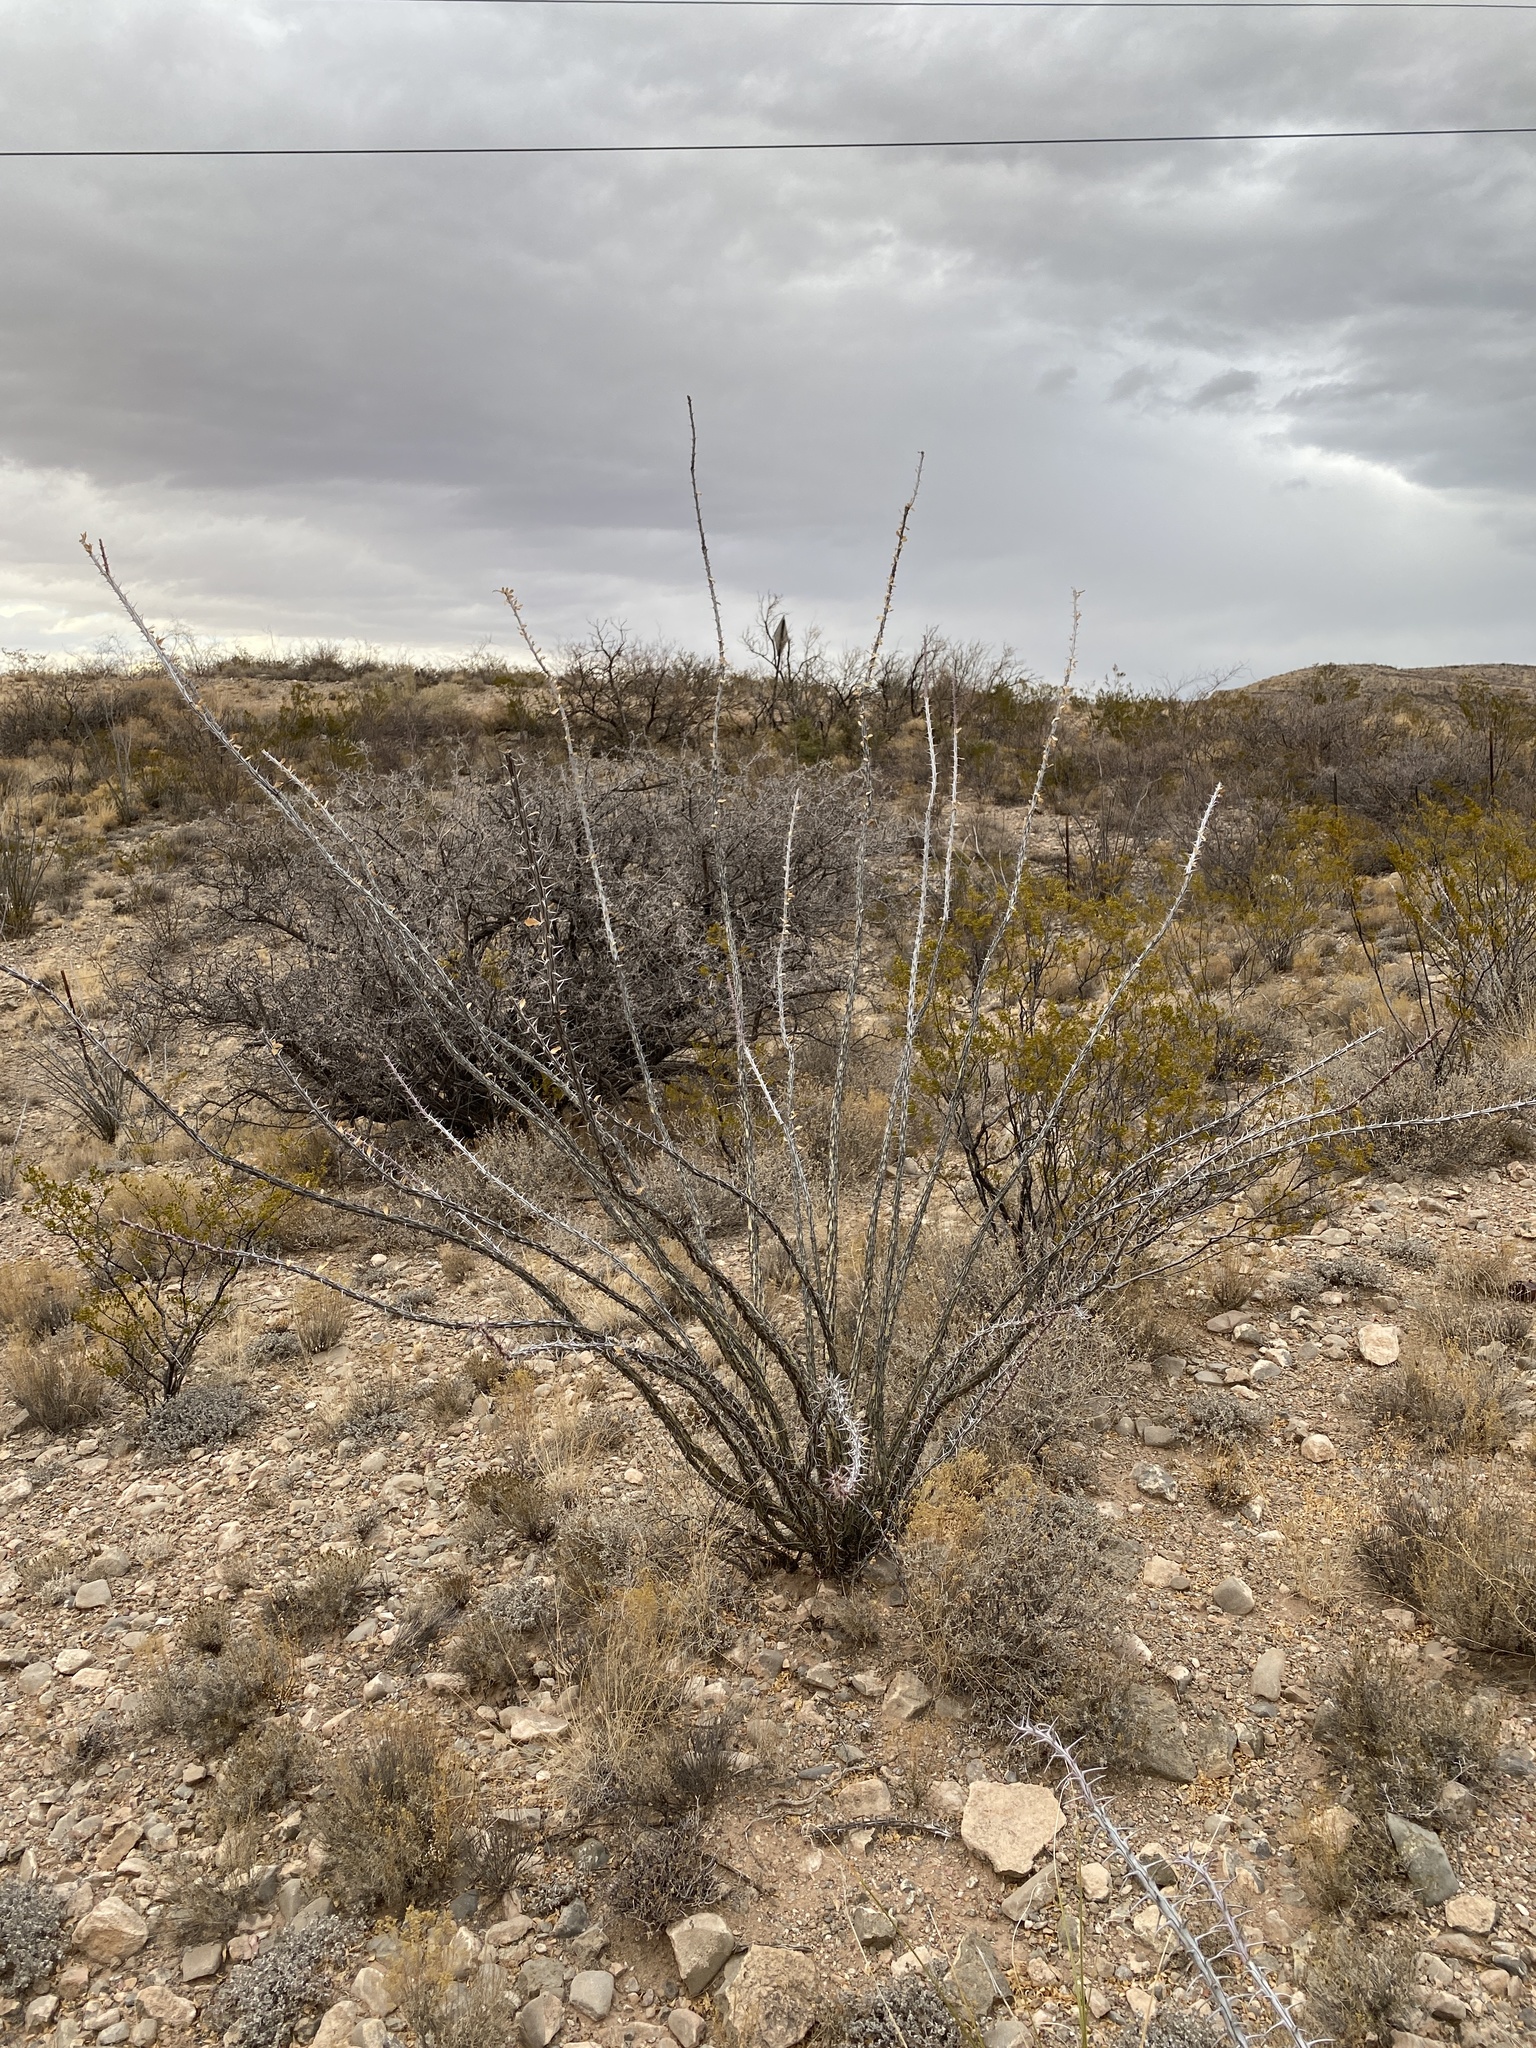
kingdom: Plantae
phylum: Tracheophyta
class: Magnoliopsida
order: Ericales
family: Fouquieriaceae
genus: Fouquieria
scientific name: Fouquieria splendens
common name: Vine-cactus
